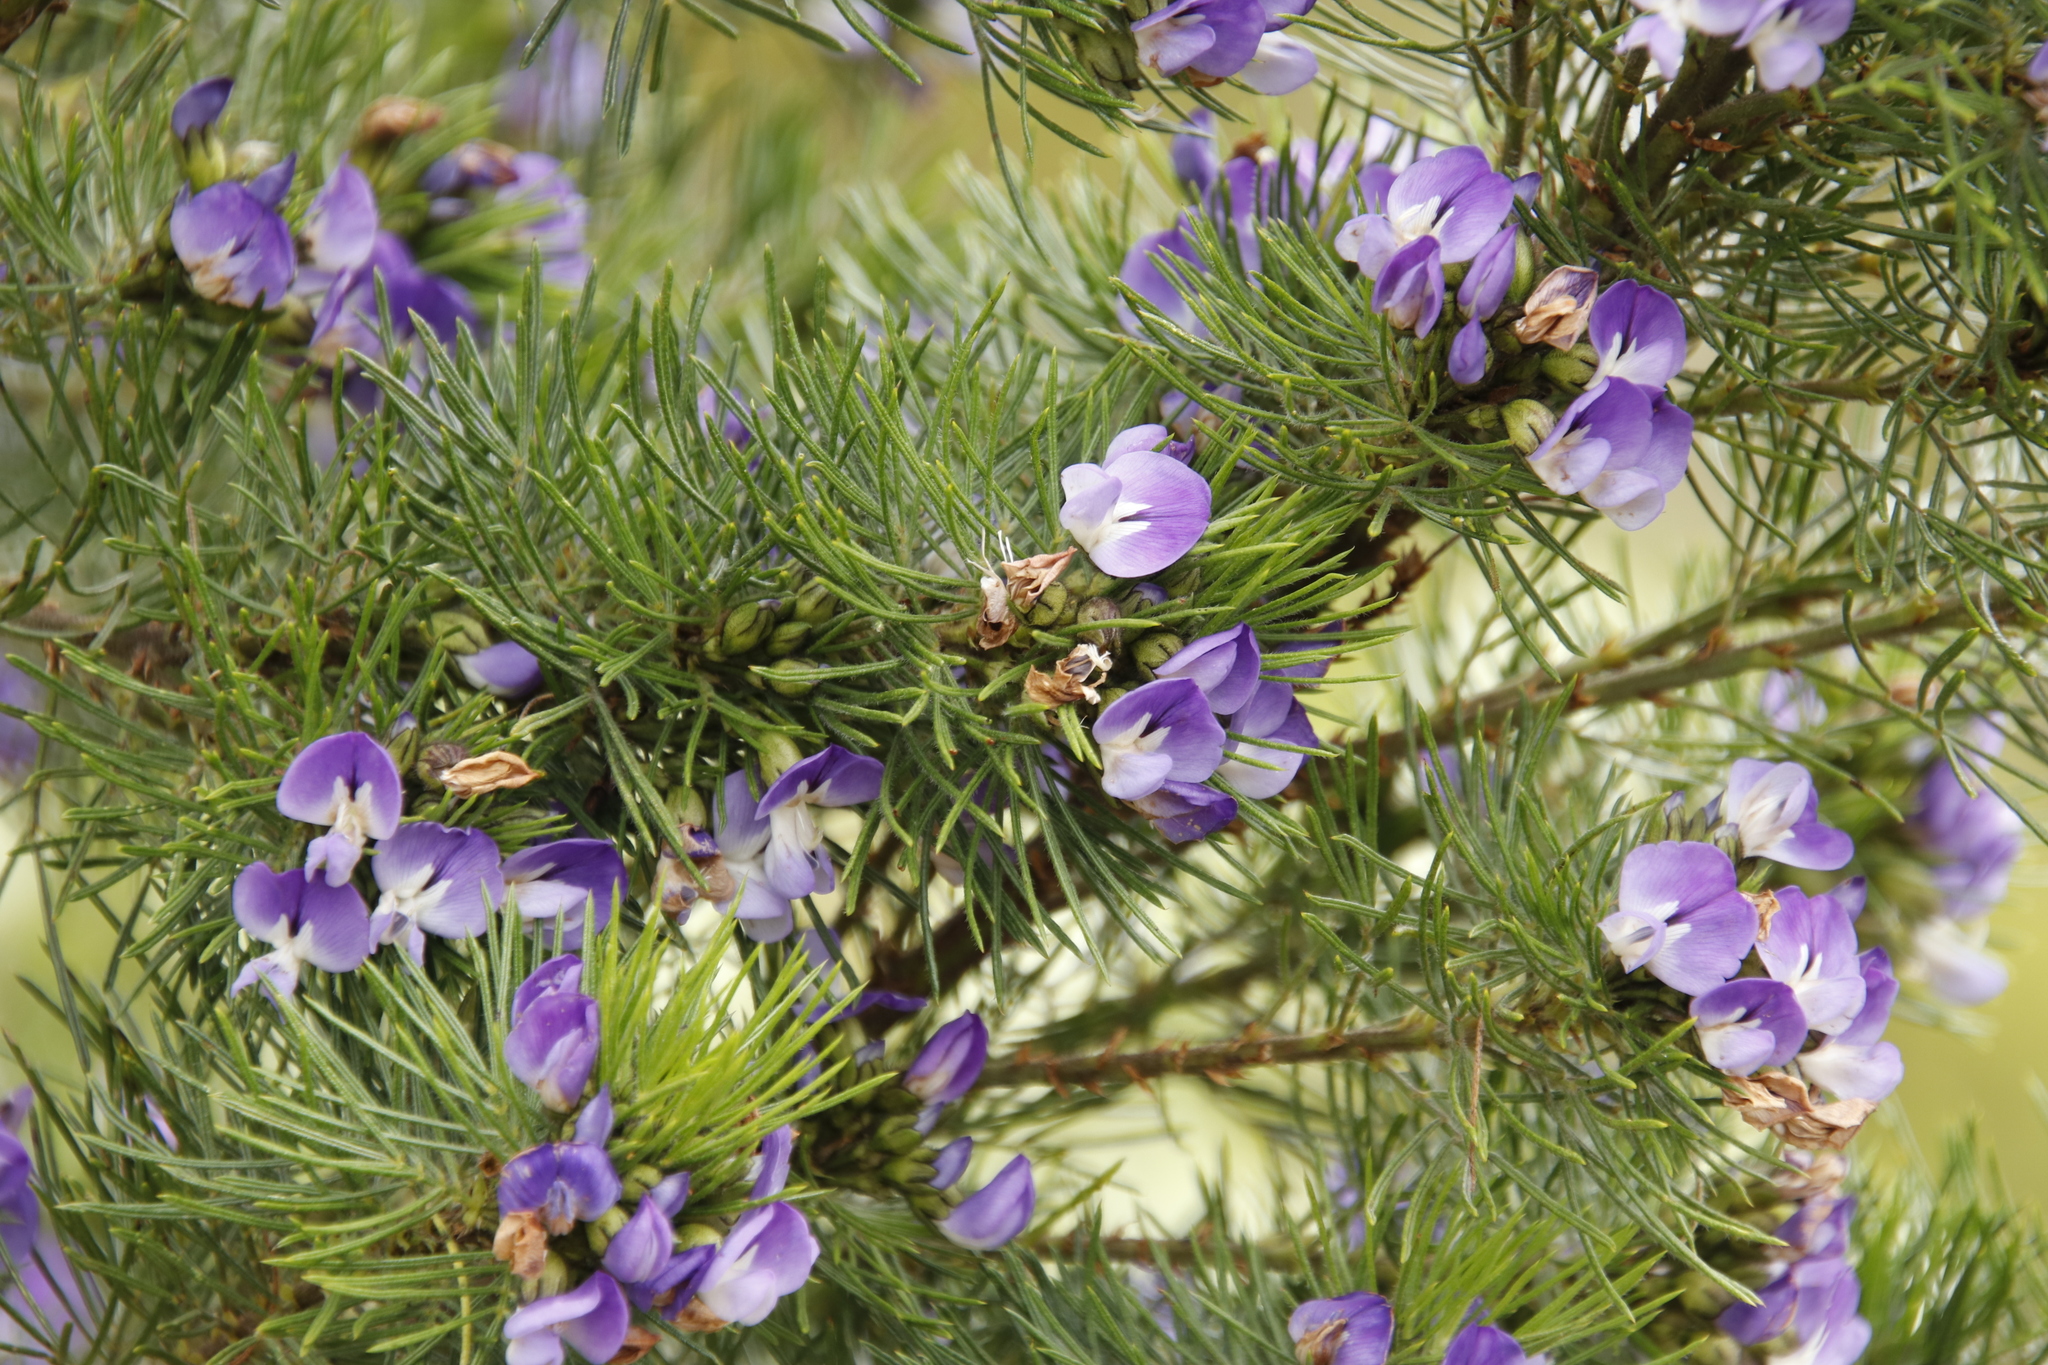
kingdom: Plantae
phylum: Tracheophyta
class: Magnoliopsida
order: Fabales
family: Fabaceae
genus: Psoralea
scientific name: Psoralea pinnata
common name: African scurfpea
